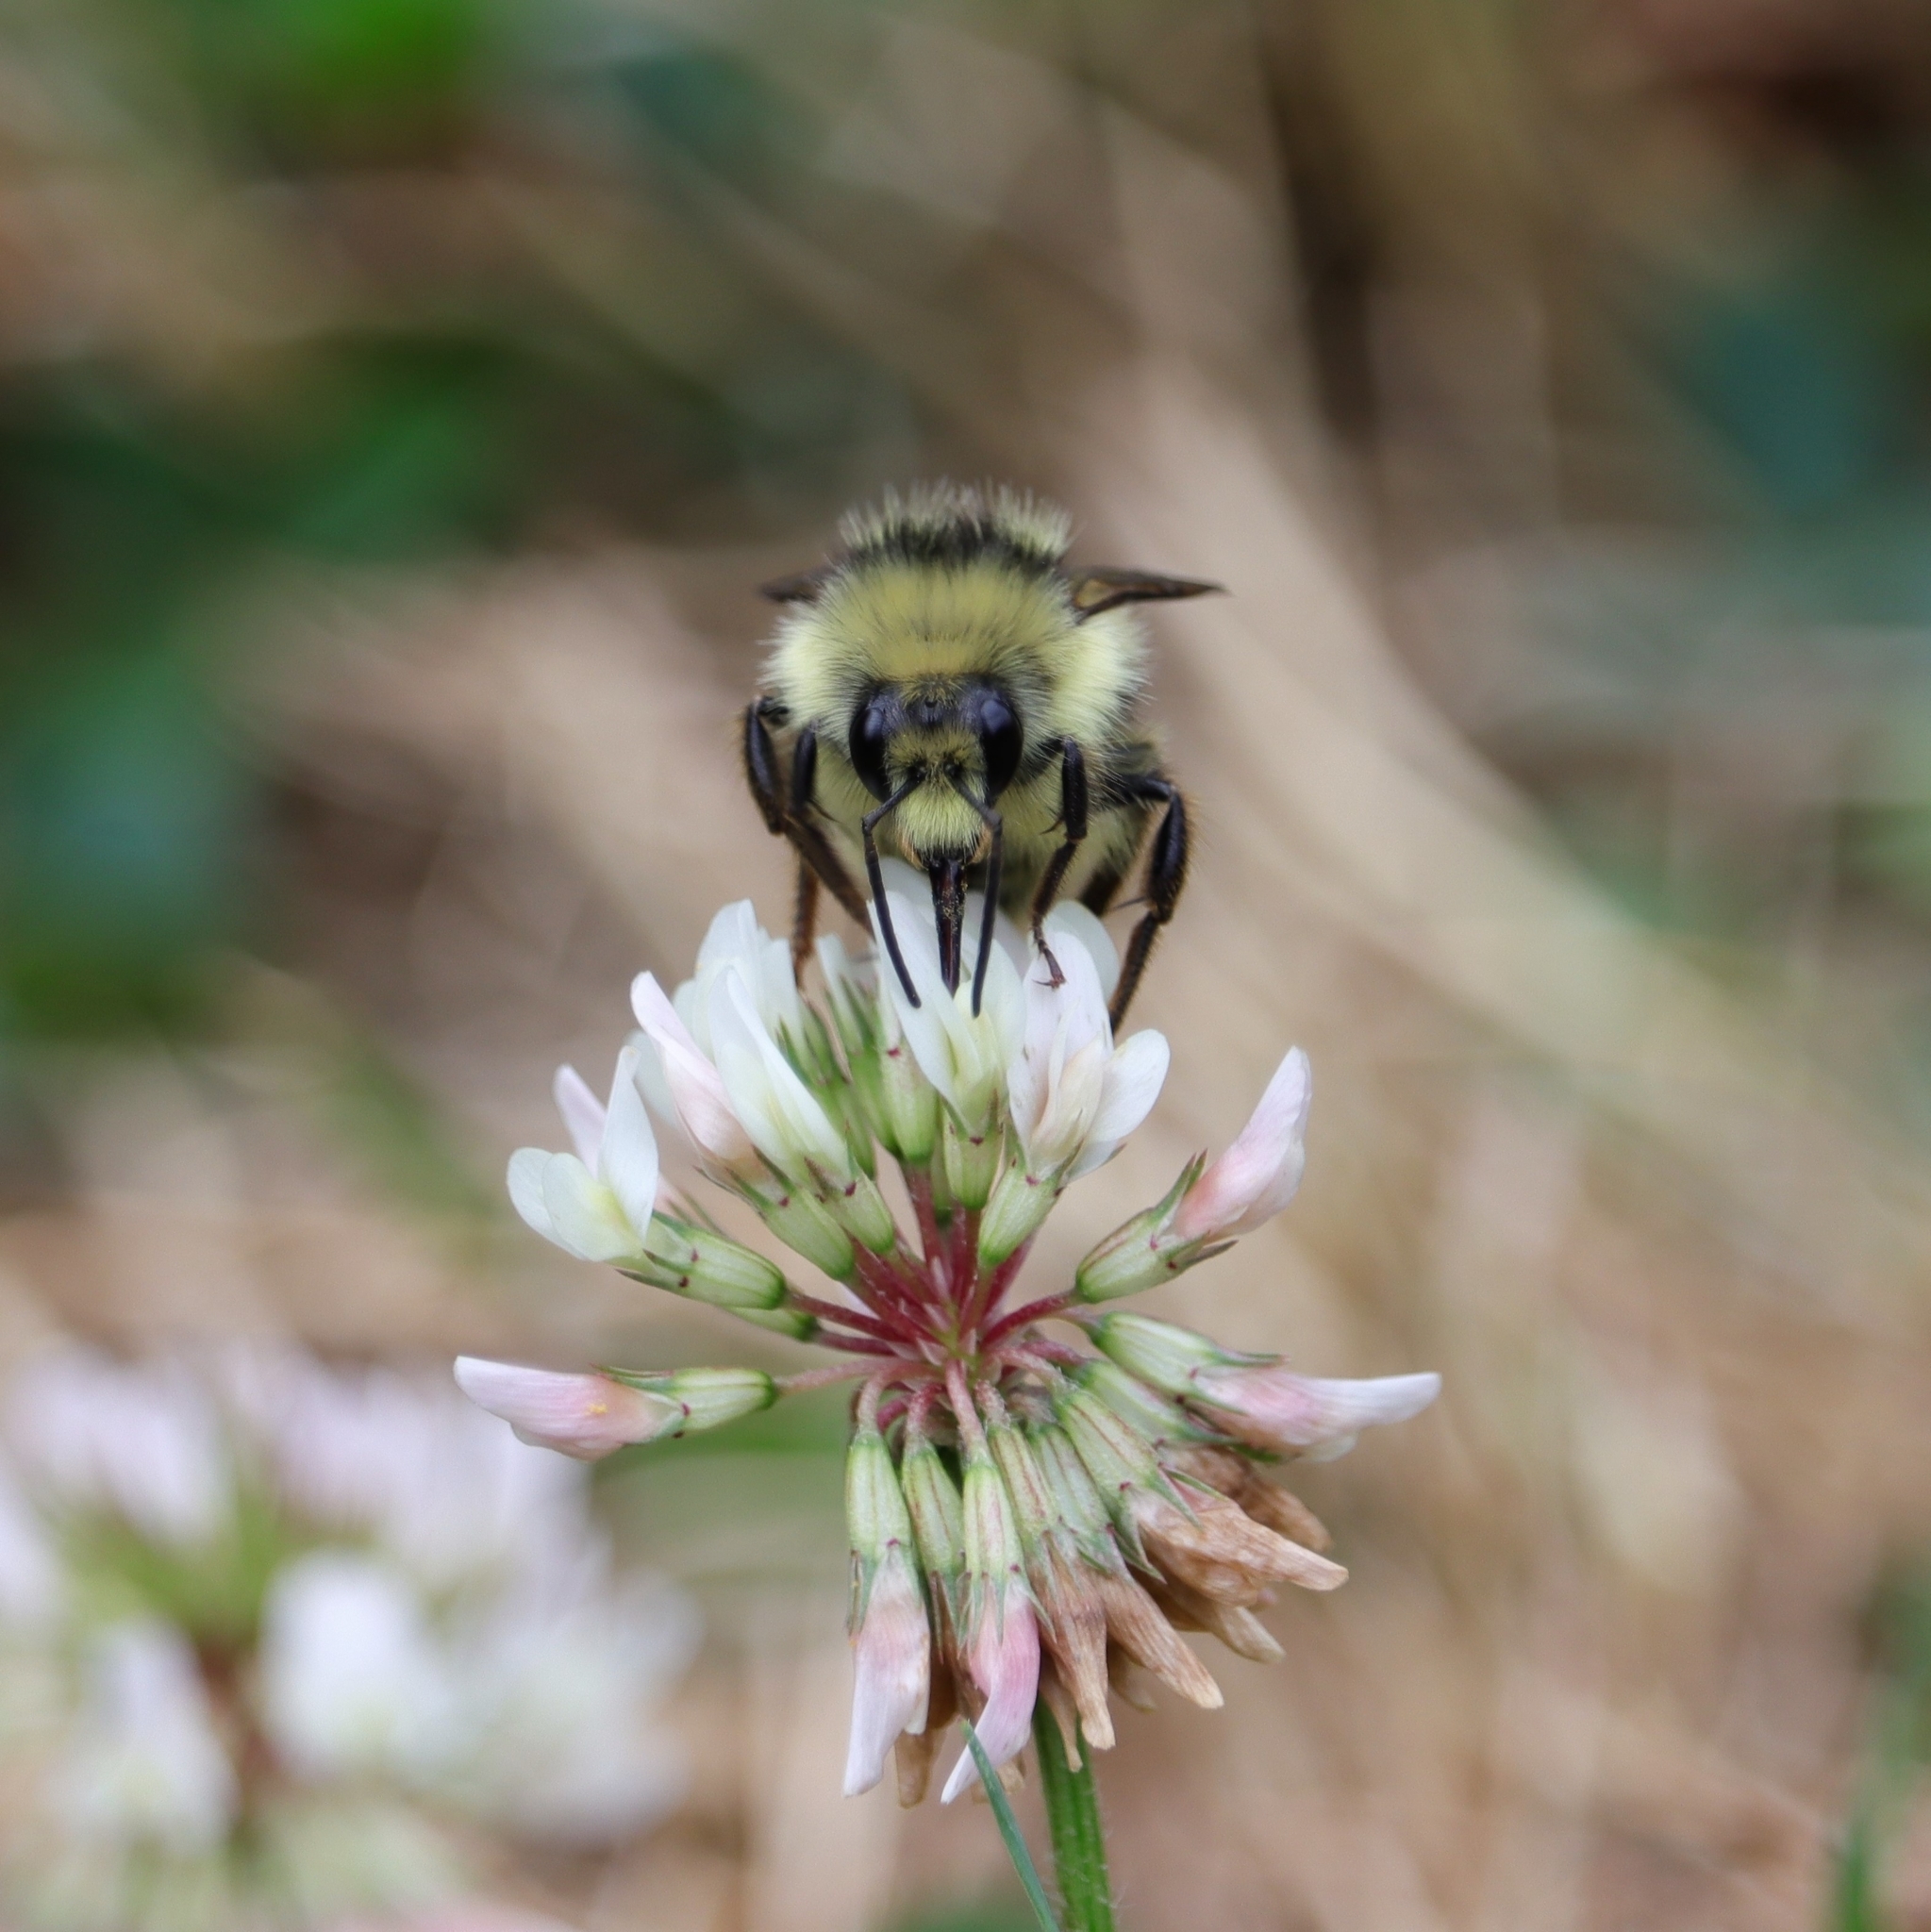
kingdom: Animalia
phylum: Arthropoda
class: Insecta
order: Hymenoptera
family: Apidae
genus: Bombus
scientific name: Bombus vancouverensis
